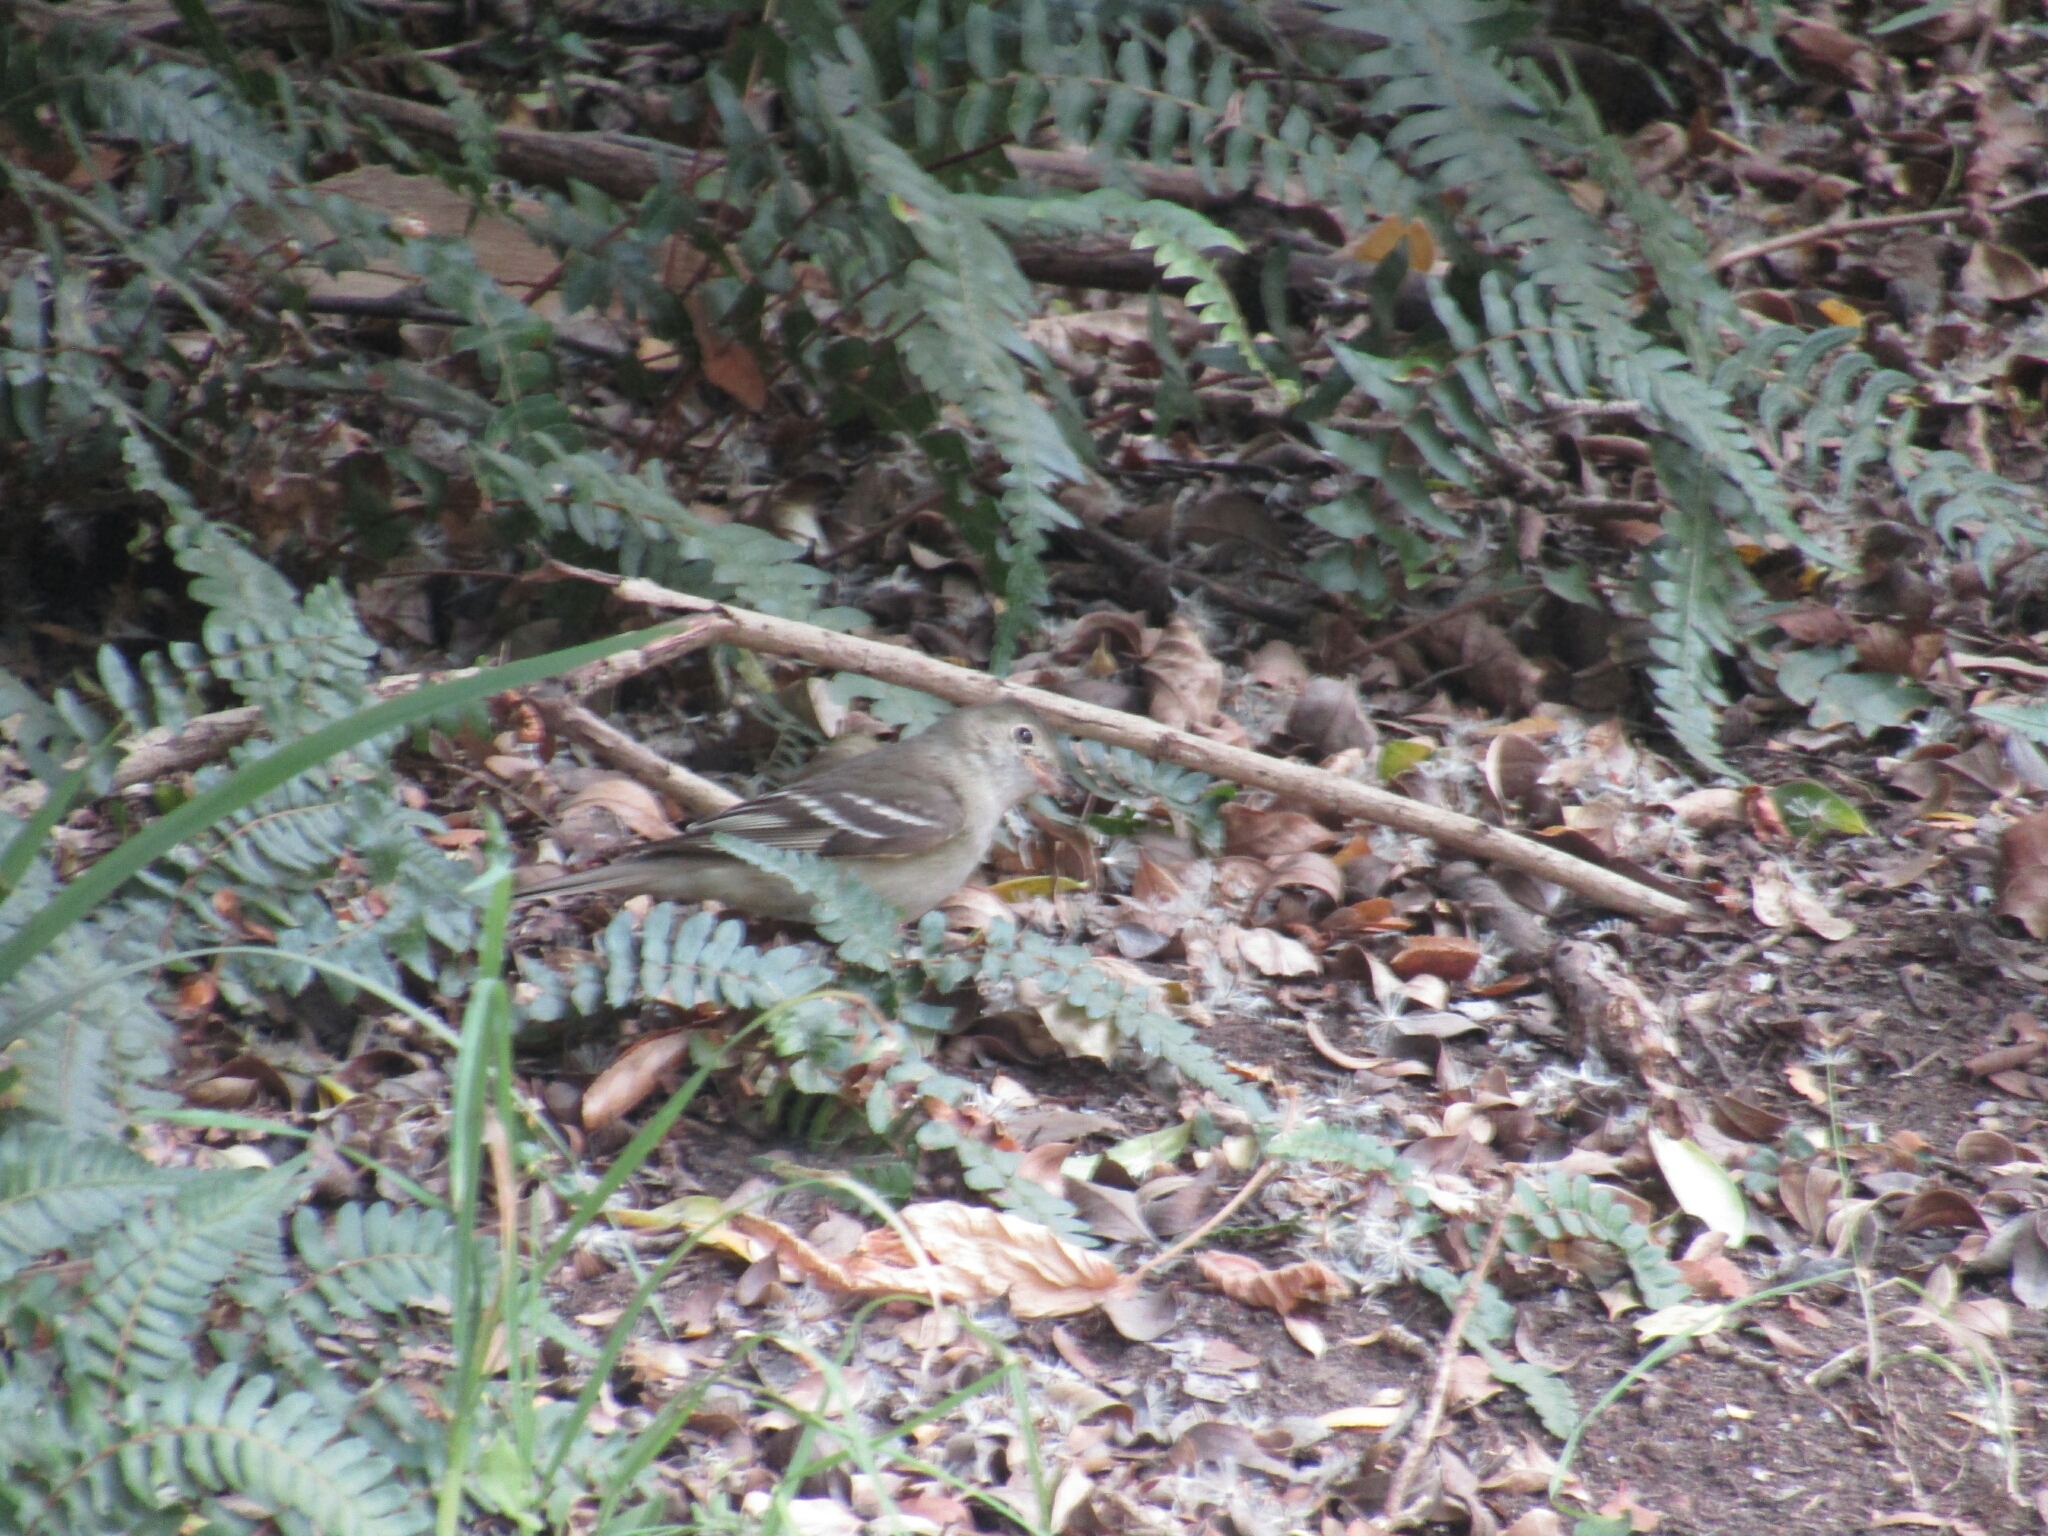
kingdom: Animalia
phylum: Chordata
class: Aves
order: Passeriformes
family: Tyrannidae
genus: Elaenia
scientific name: Elaenia albiceps
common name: White-crested elaenia
